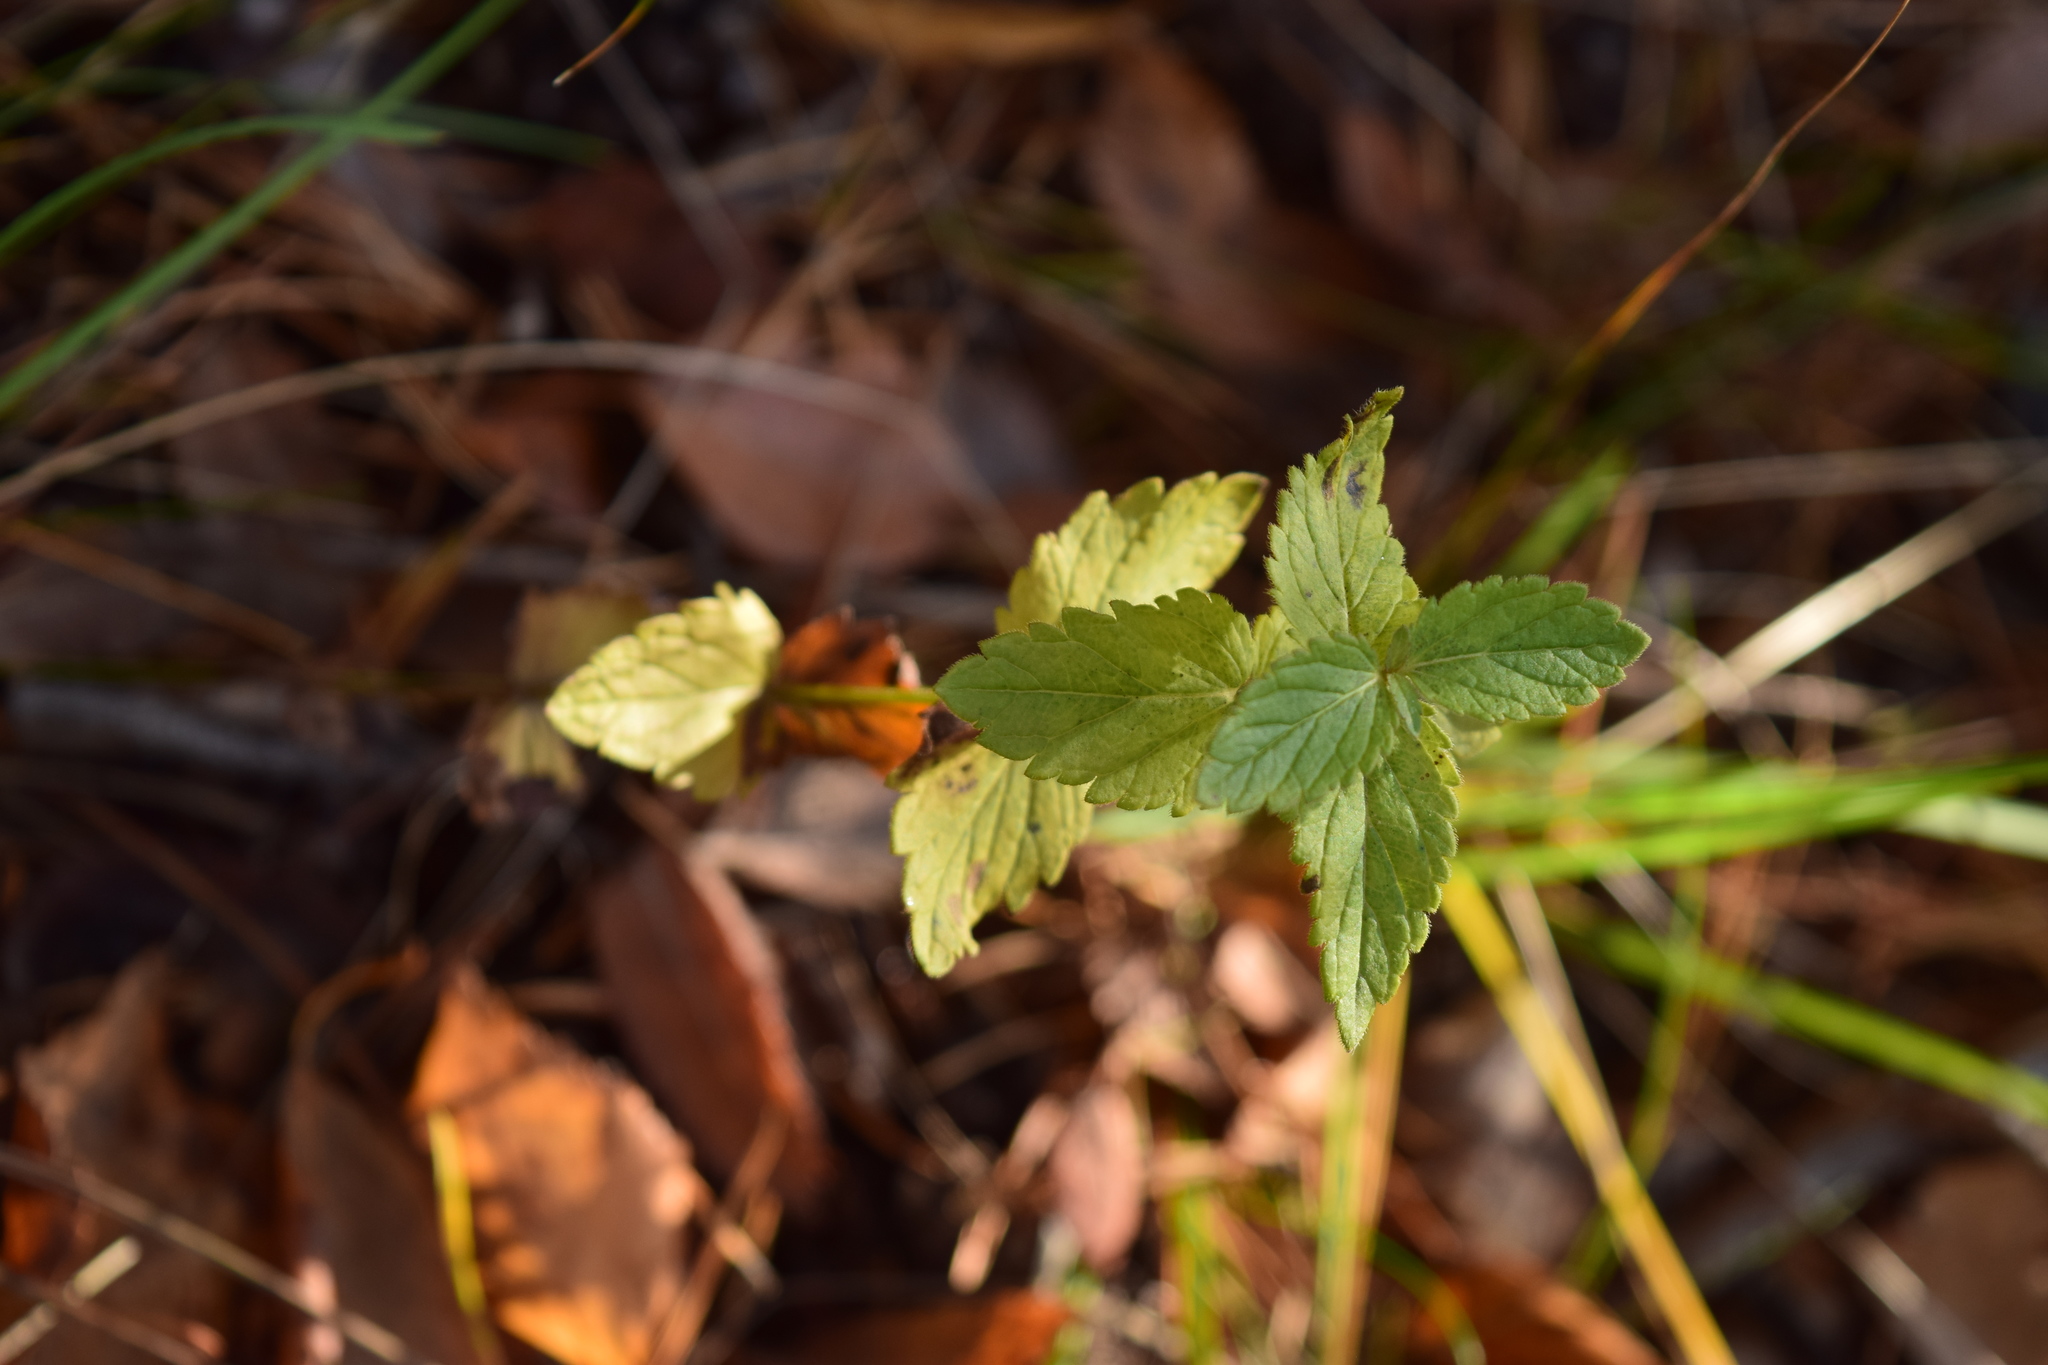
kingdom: Plantae
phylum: Tracheophyta
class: Magnoliopsida
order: Lamiales
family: Plantaginaceae
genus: Veronica
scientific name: Veronica chamaedrys
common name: Germander speedwell
